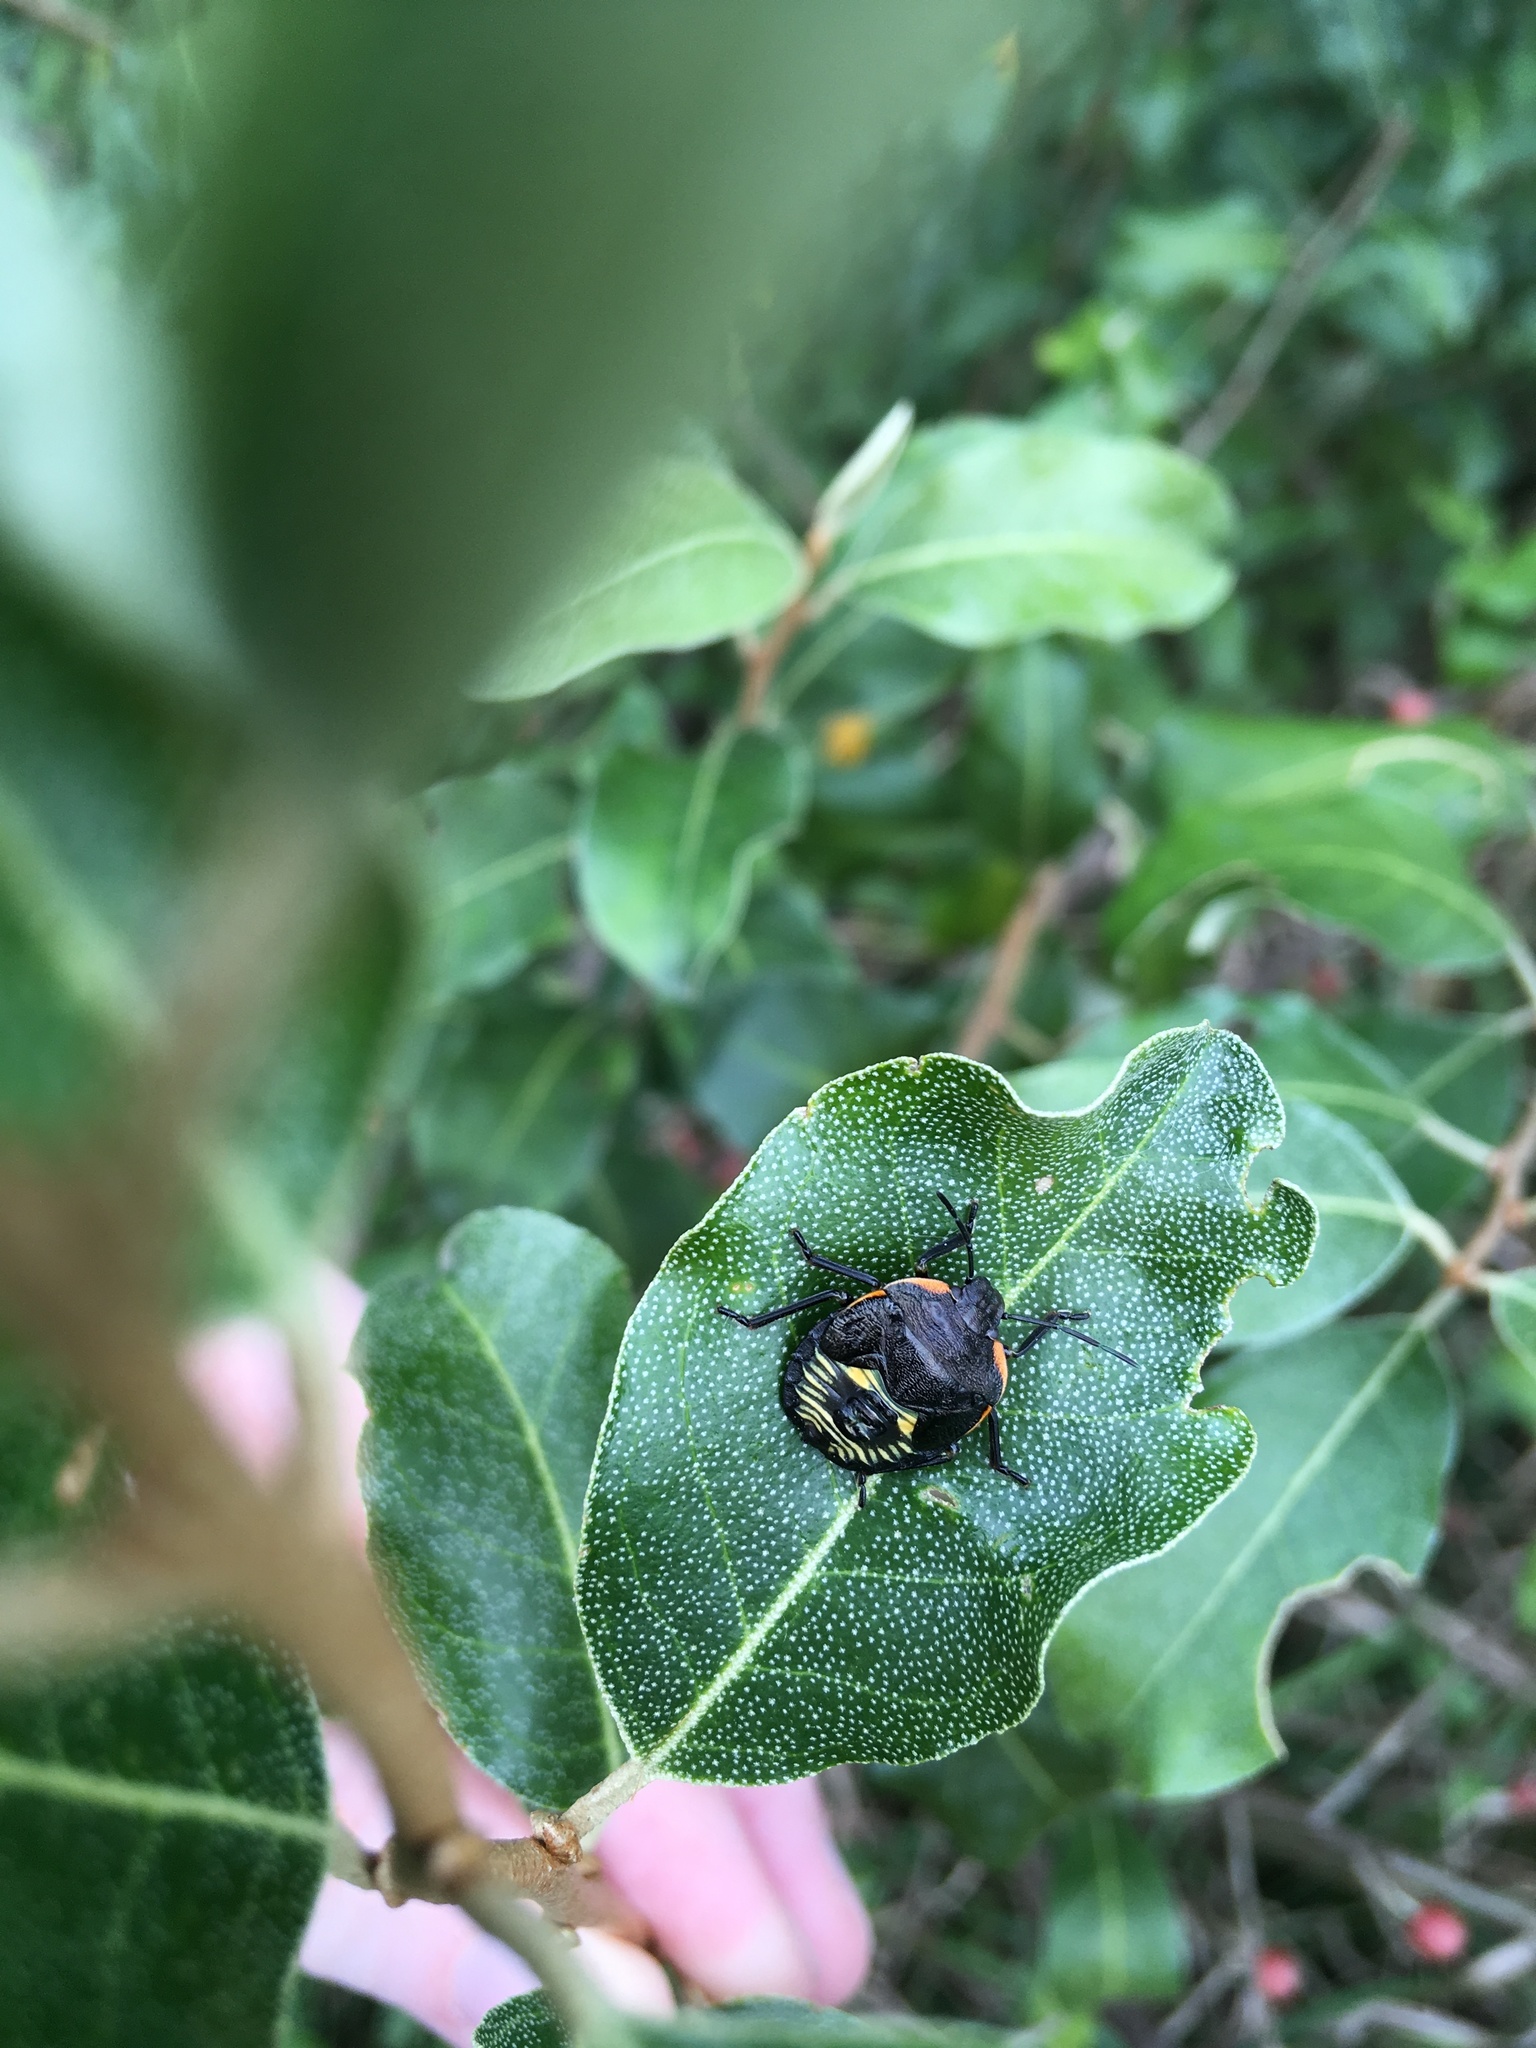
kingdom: Animalia
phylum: Arthropoda
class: Insecta
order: Hemiptera
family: Pentatomidae
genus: Chinavia
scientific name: Chinavia hilaris
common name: Green stink bug
